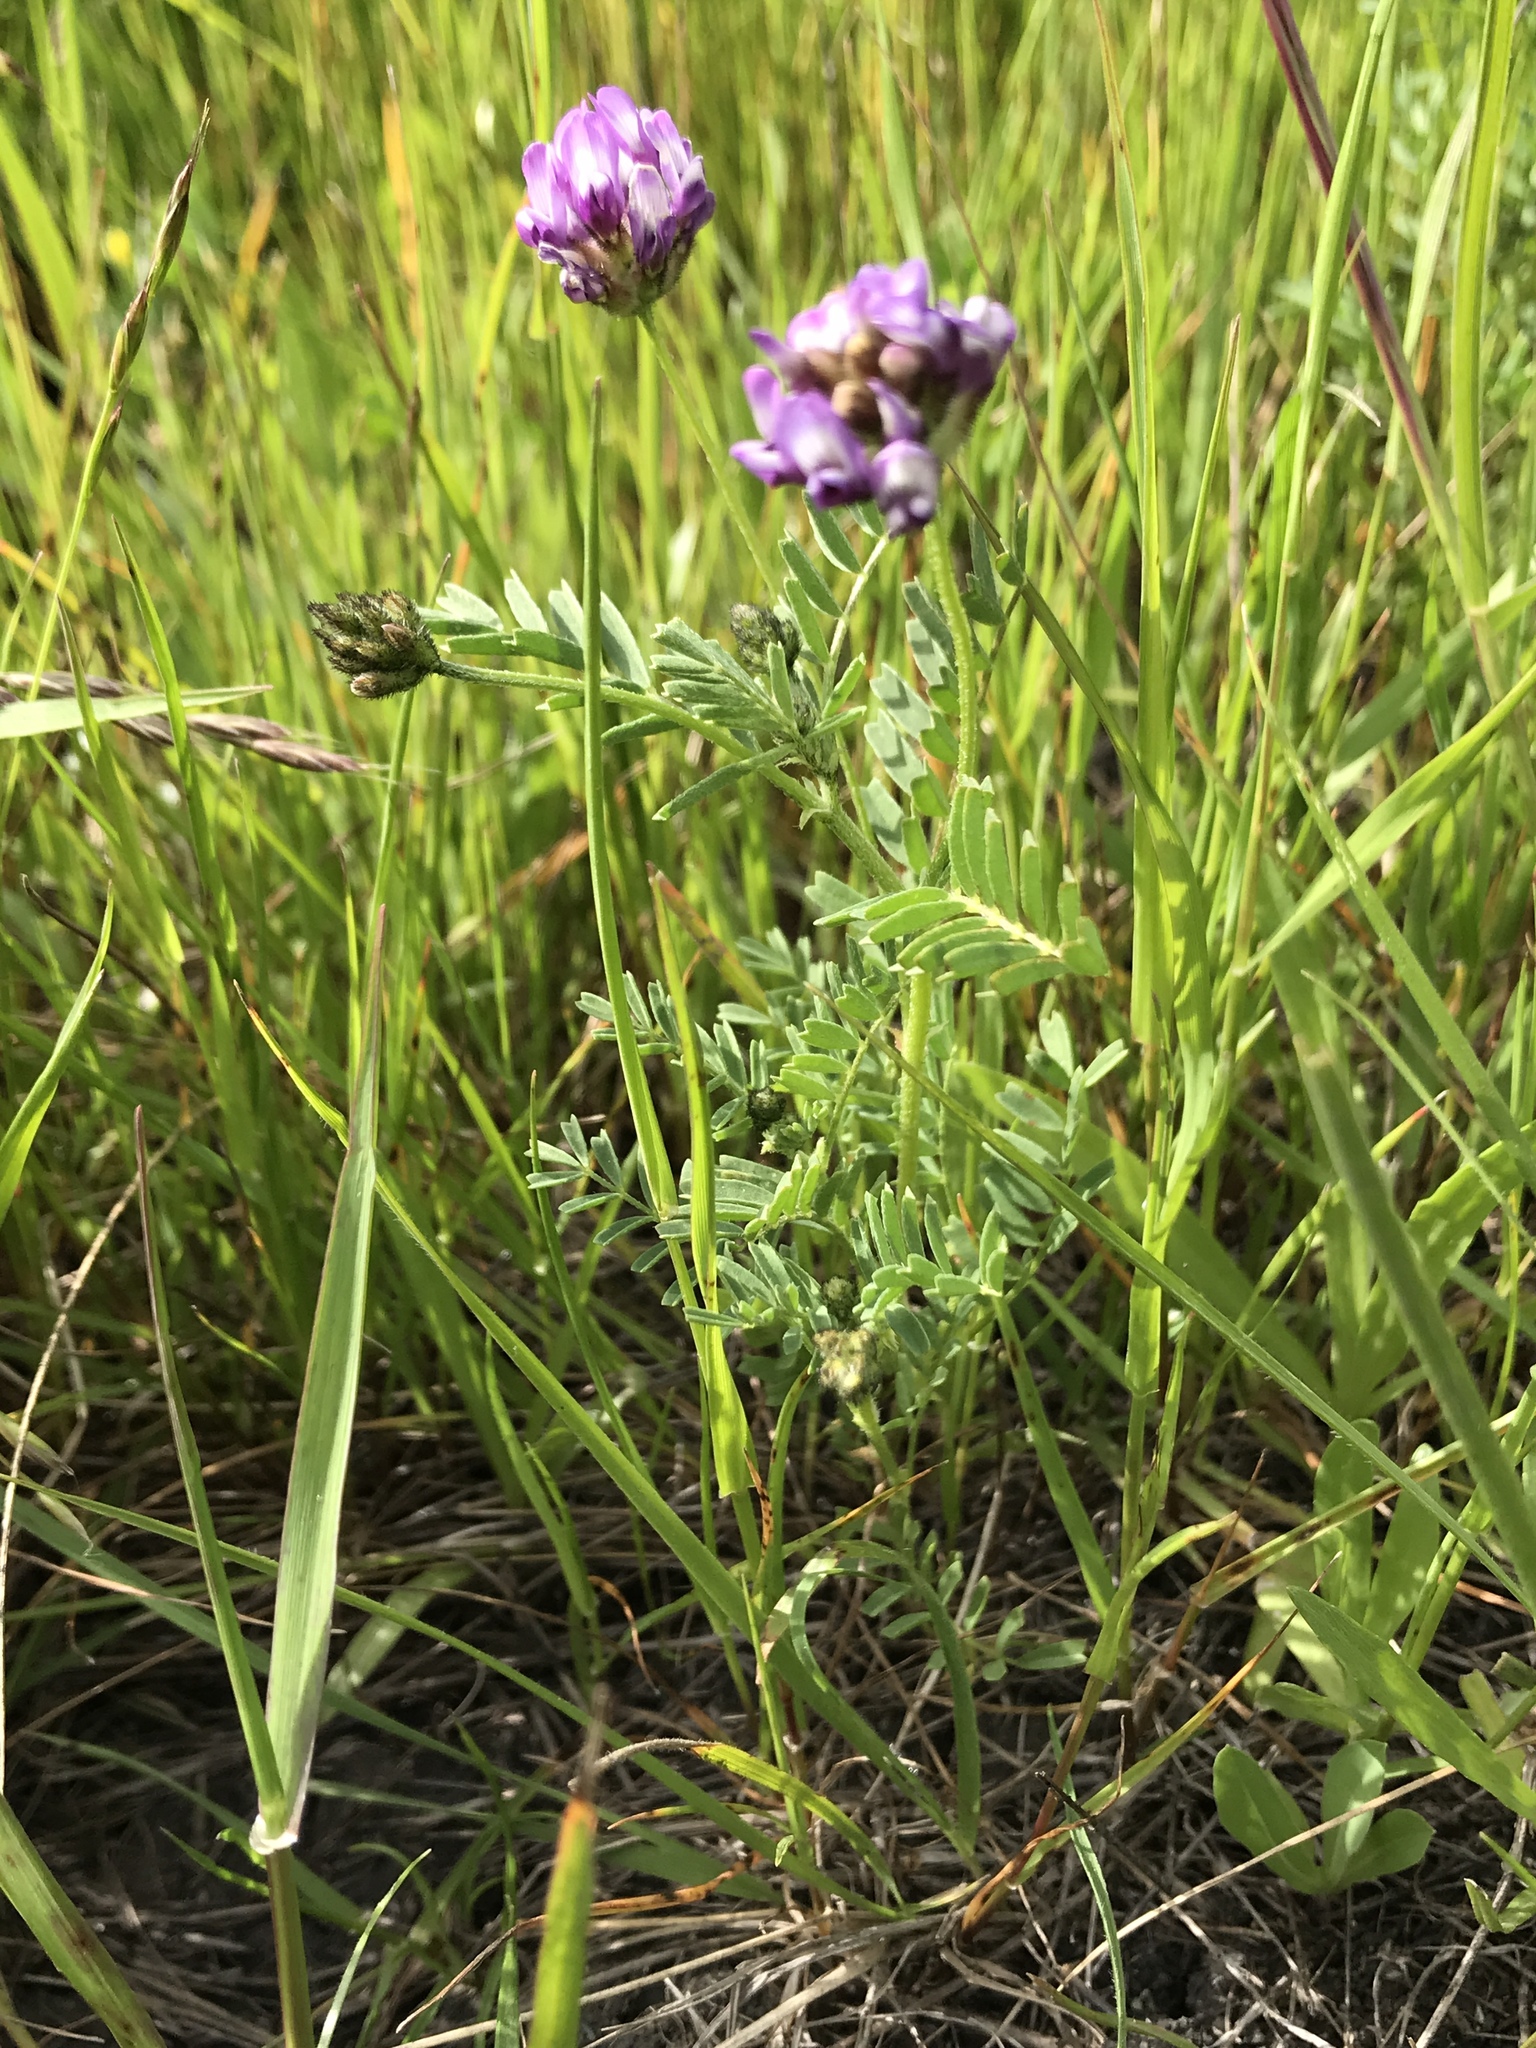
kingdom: Plantae
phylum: Tracheophyta
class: Magnoliopsida
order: Fabales
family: Fabaceae
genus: Astragalus
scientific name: Astragalus didymocarpus
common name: Dwarf white milkvetch
